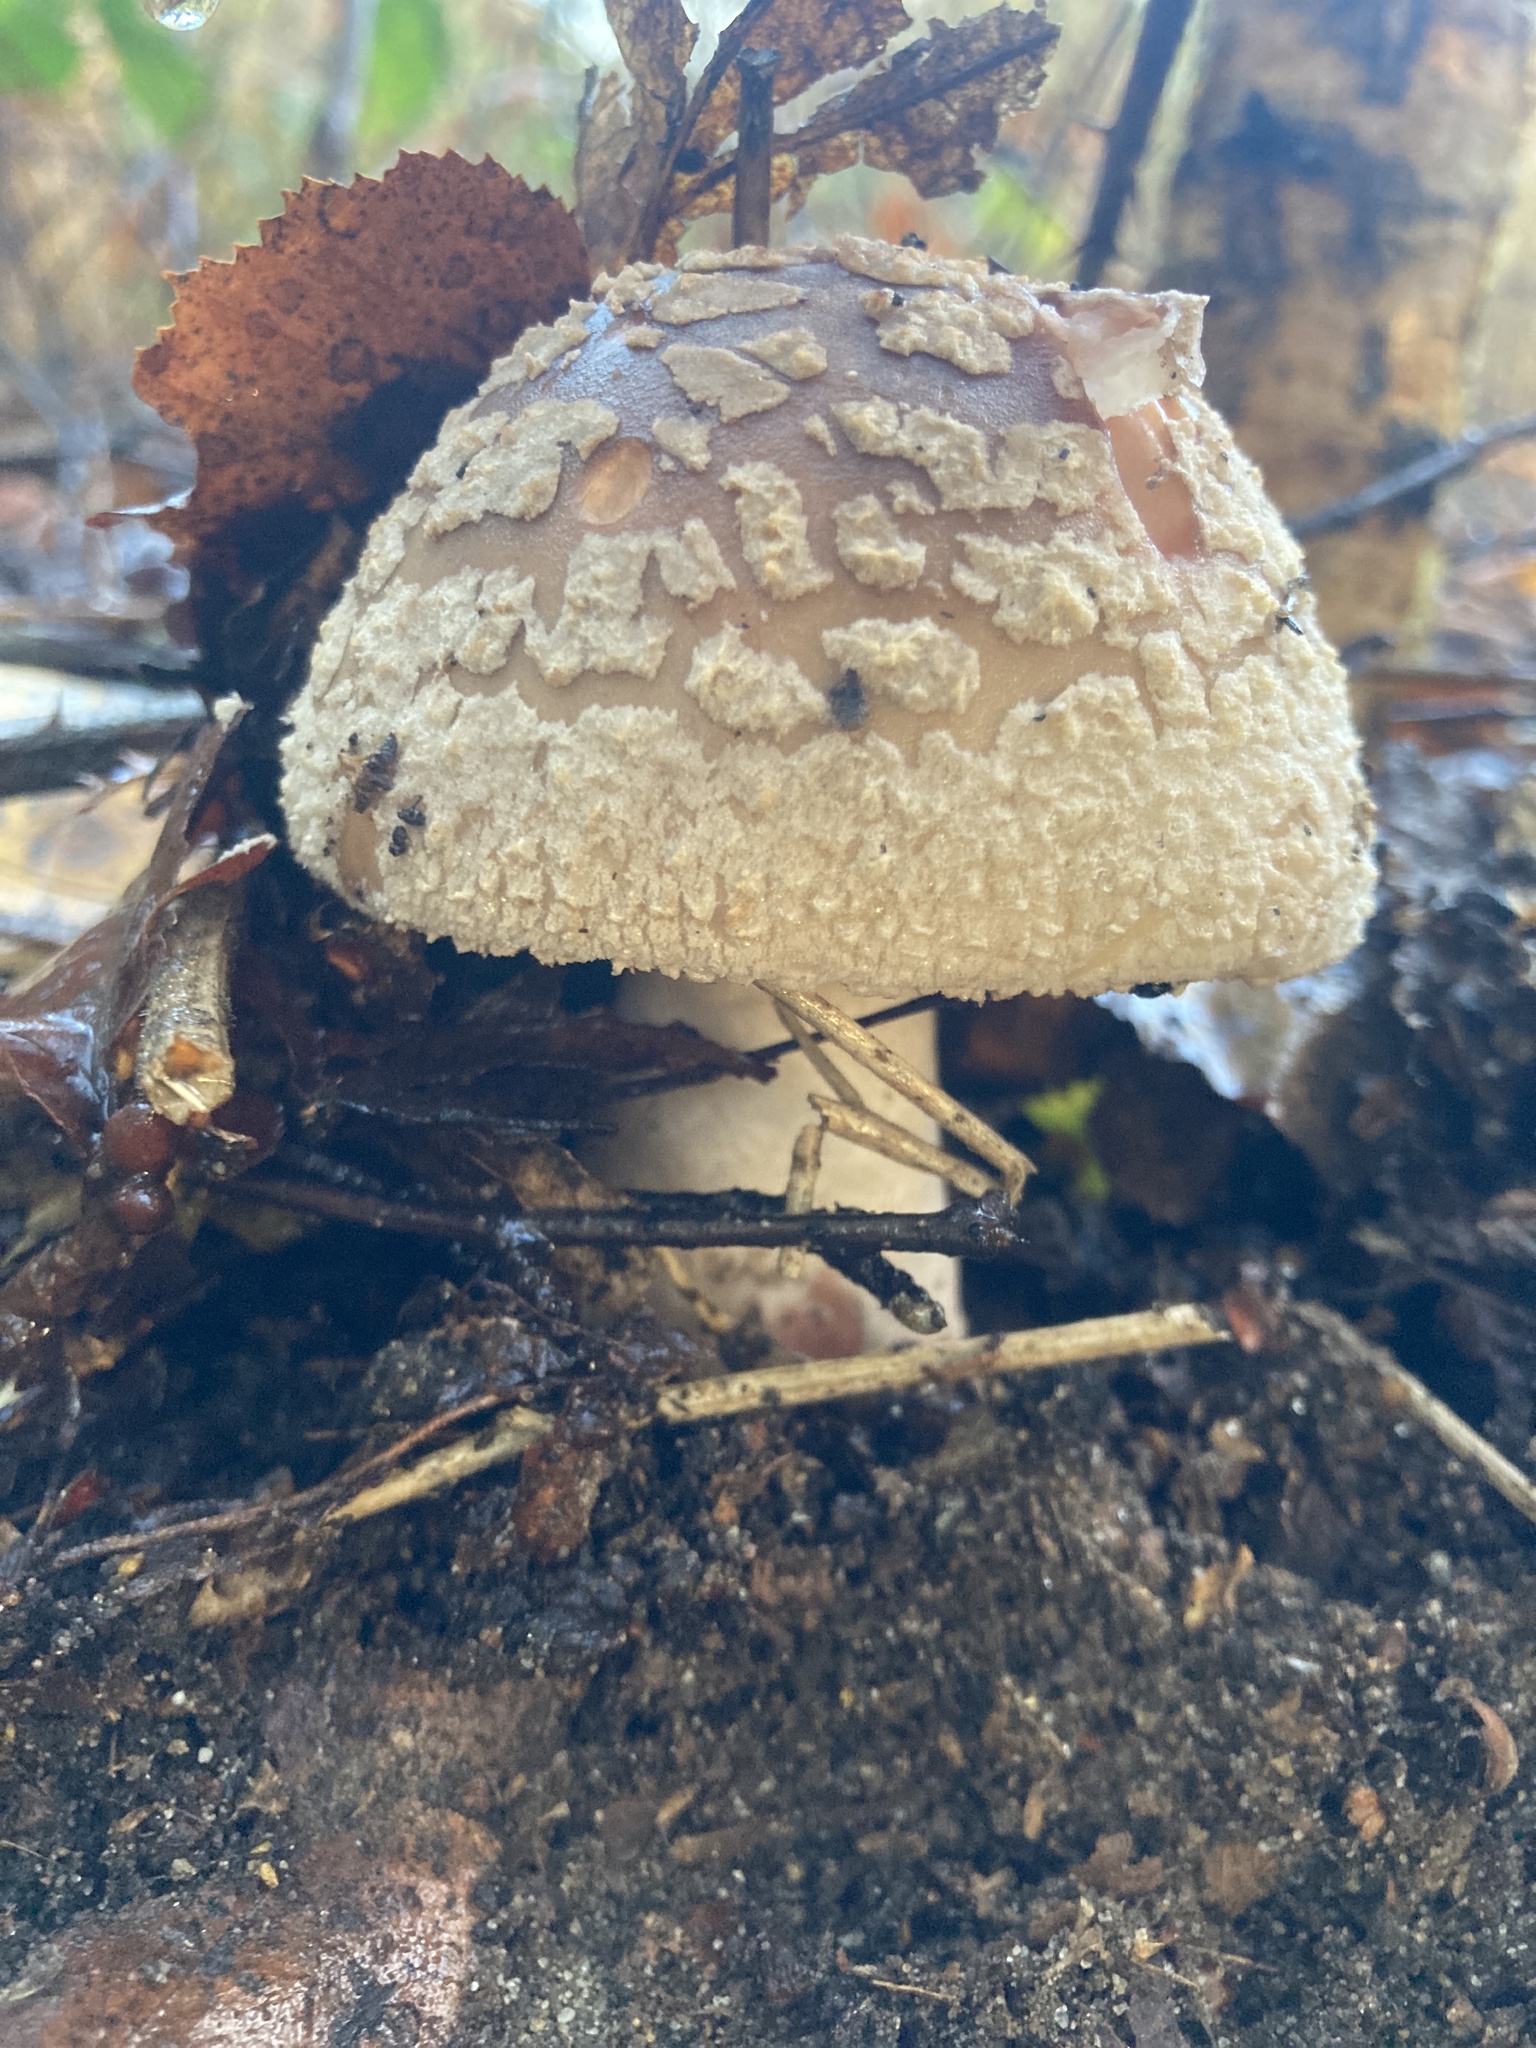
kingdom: Fungi
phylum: Basidiomycota
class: Agaricomycetes
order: Agaricales
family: Amanitaceae
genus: Amanita
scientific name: Amanita rubescens
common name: Blusher
